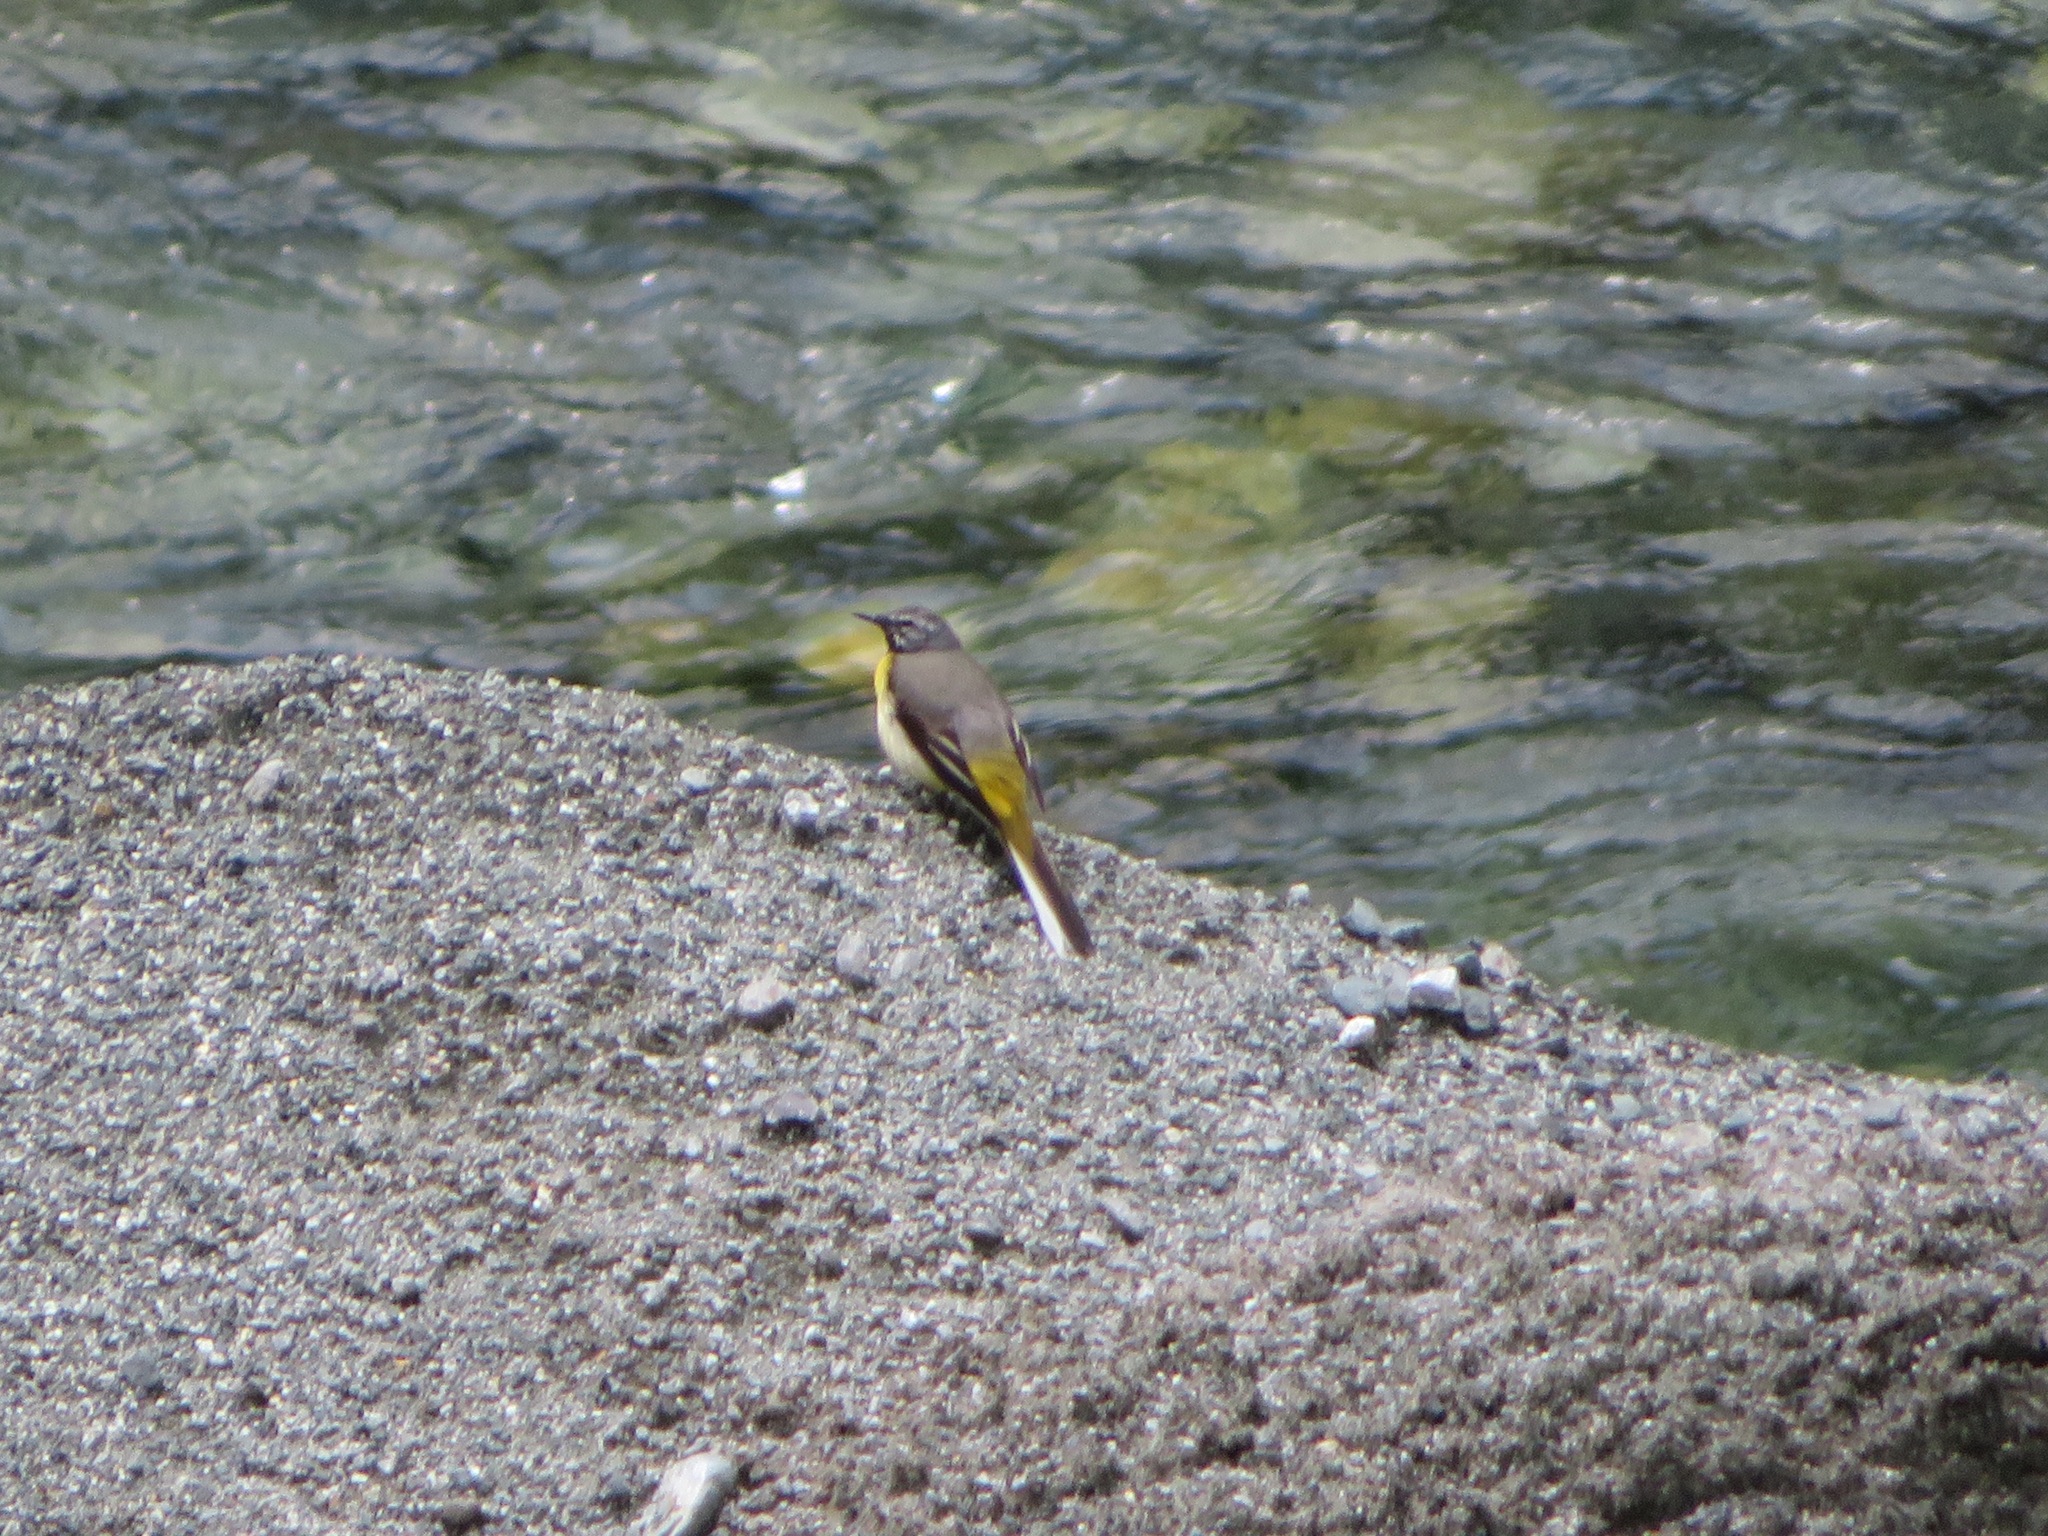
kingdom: Animalia
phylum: Chordata
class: Aves
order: Passeriformes
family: Motacillidae
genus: Motacilla
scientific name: Motacilla cinerea
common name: Grey wagtail
